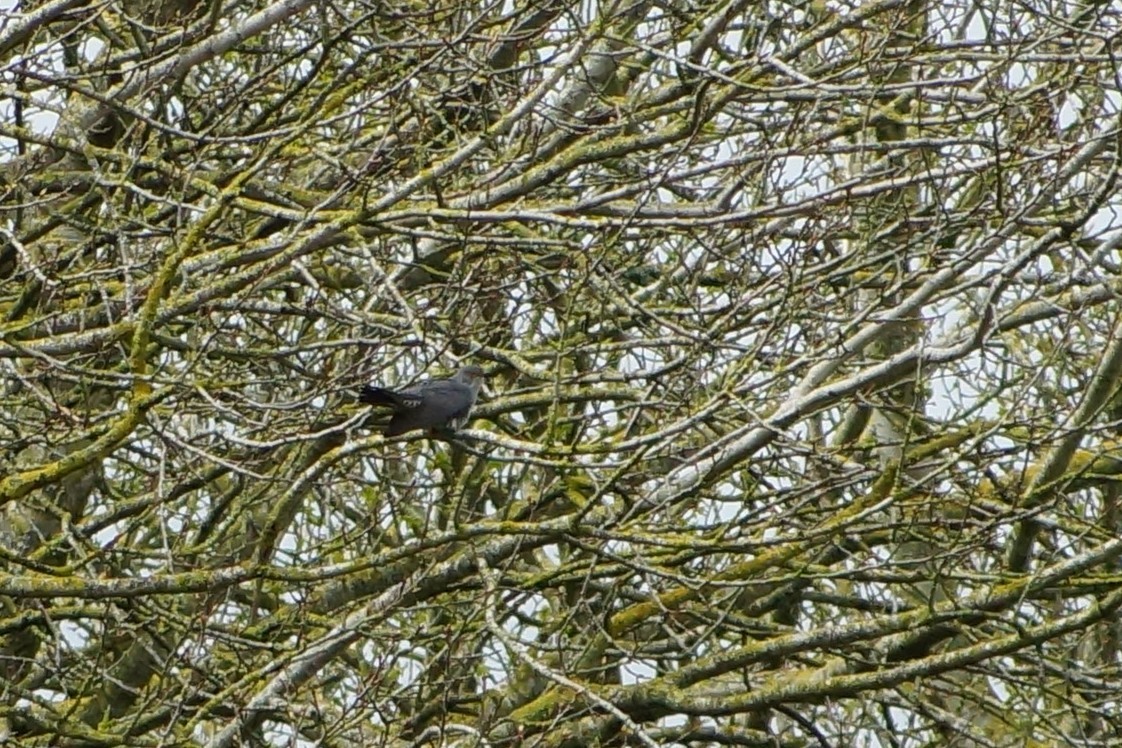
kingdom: Animalia
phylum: Chordata
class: Aves
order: Cuculiformes
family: Cuculidae
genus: Cuculus
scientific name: Cuculus canorus
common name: Common cuckoo
